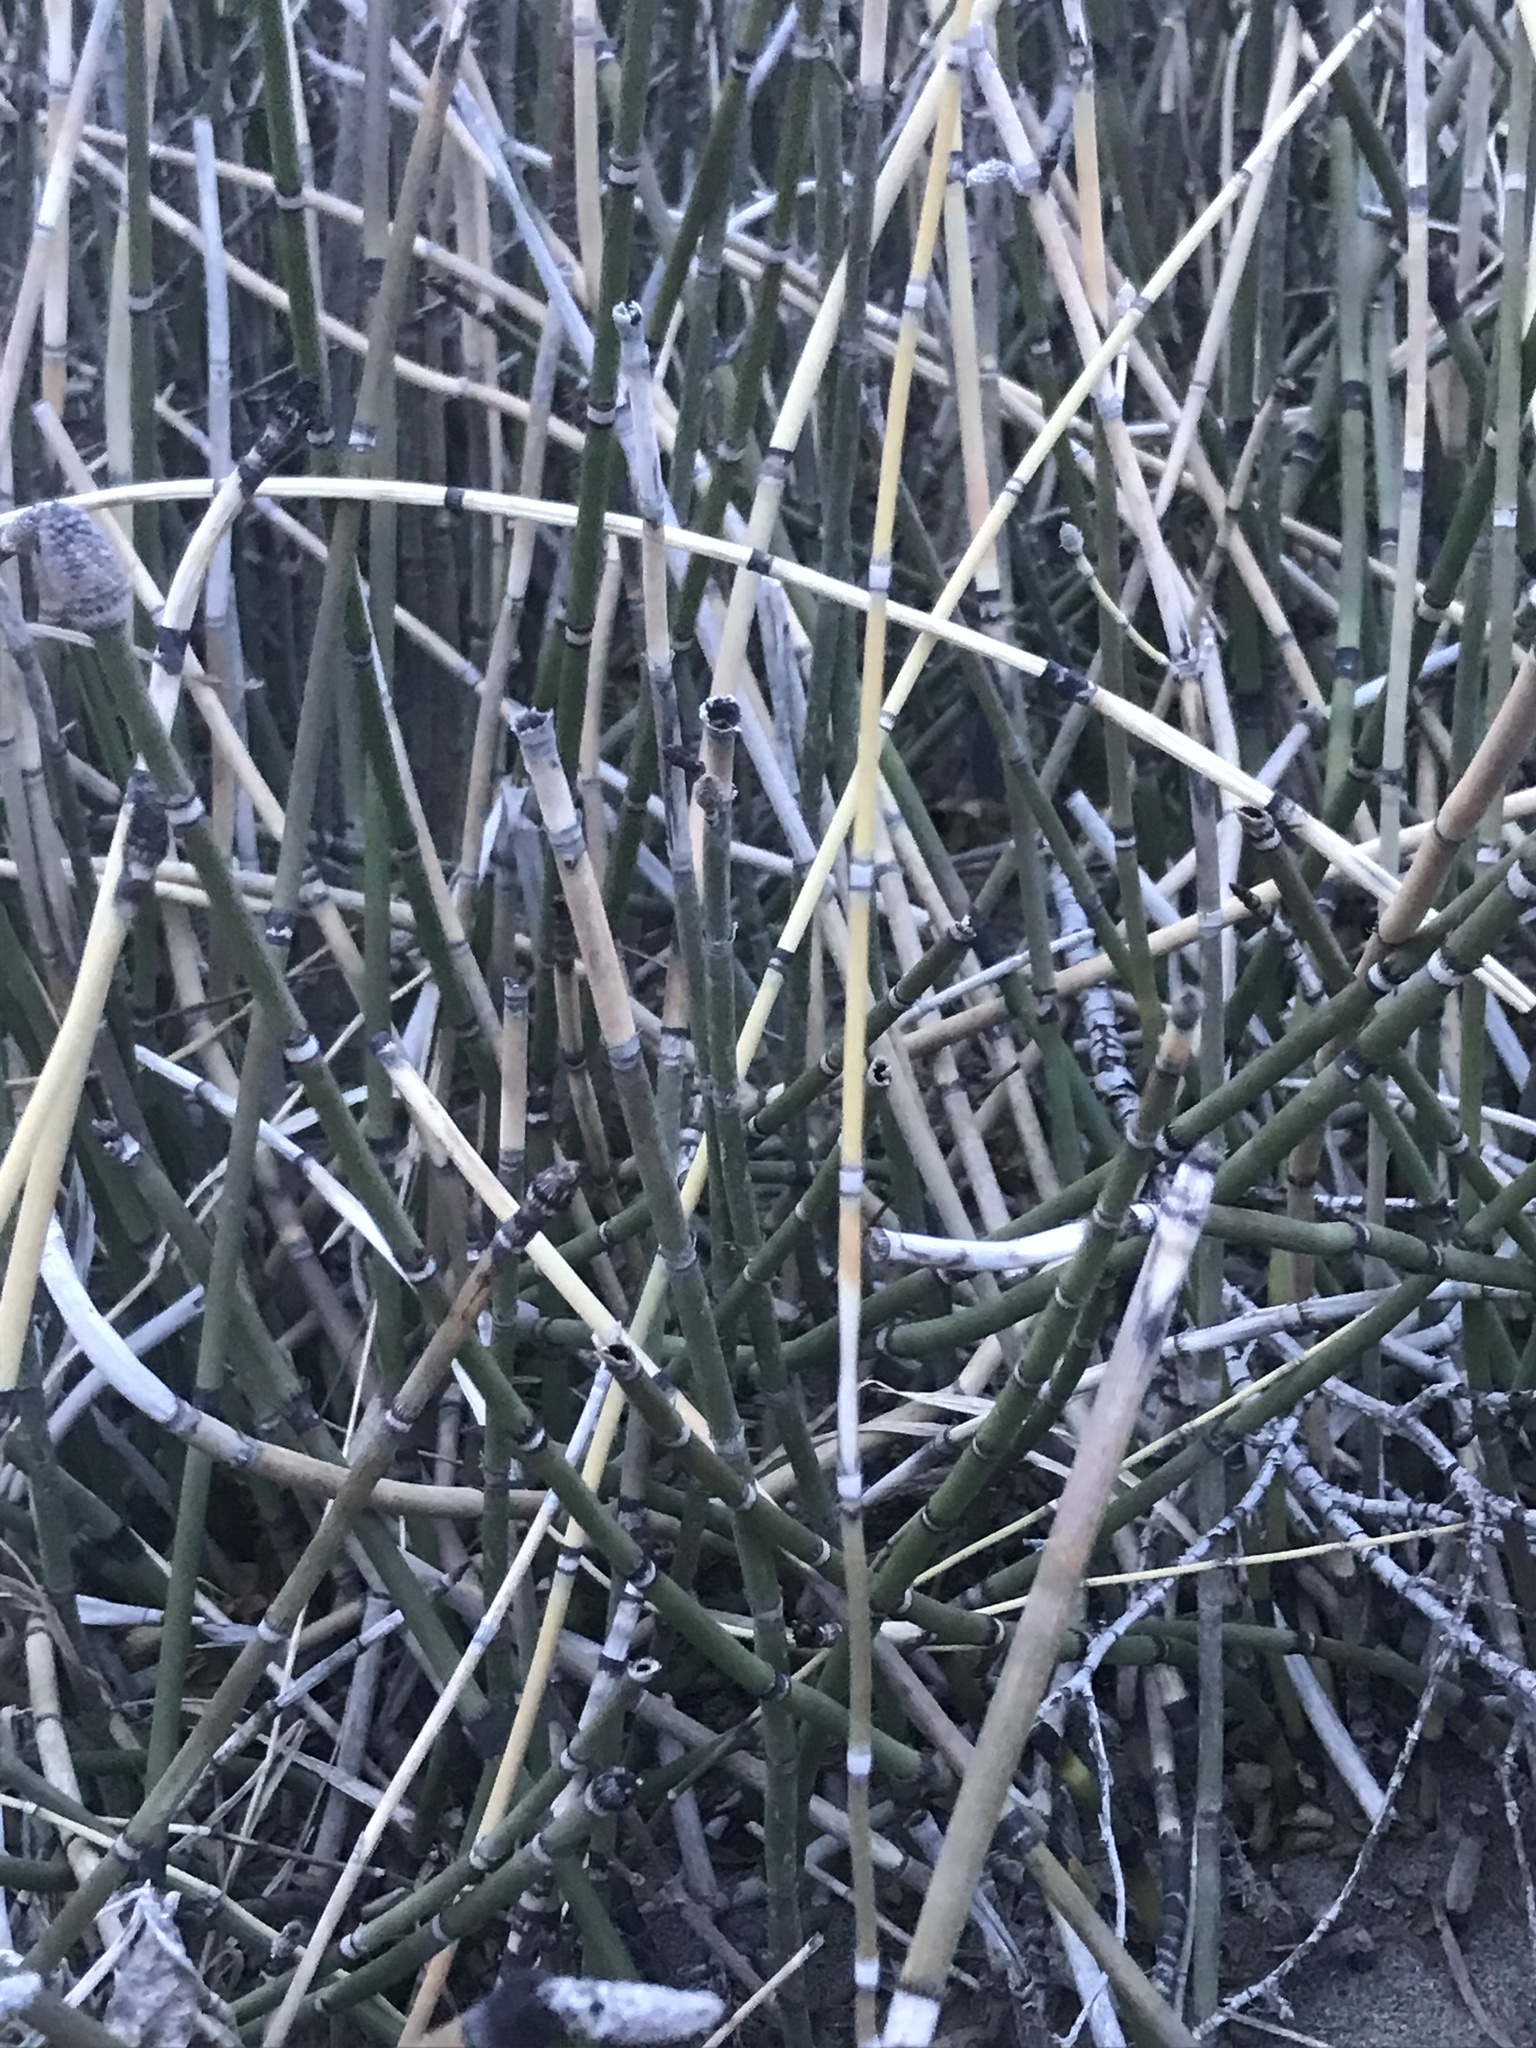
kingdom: Plantae
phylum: Tracheophyta
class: Polypodiopsida
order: Equisetales
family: Equisetaceae
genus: Equisetum
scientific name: Equisetum hyemale
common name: Rough horsetail
